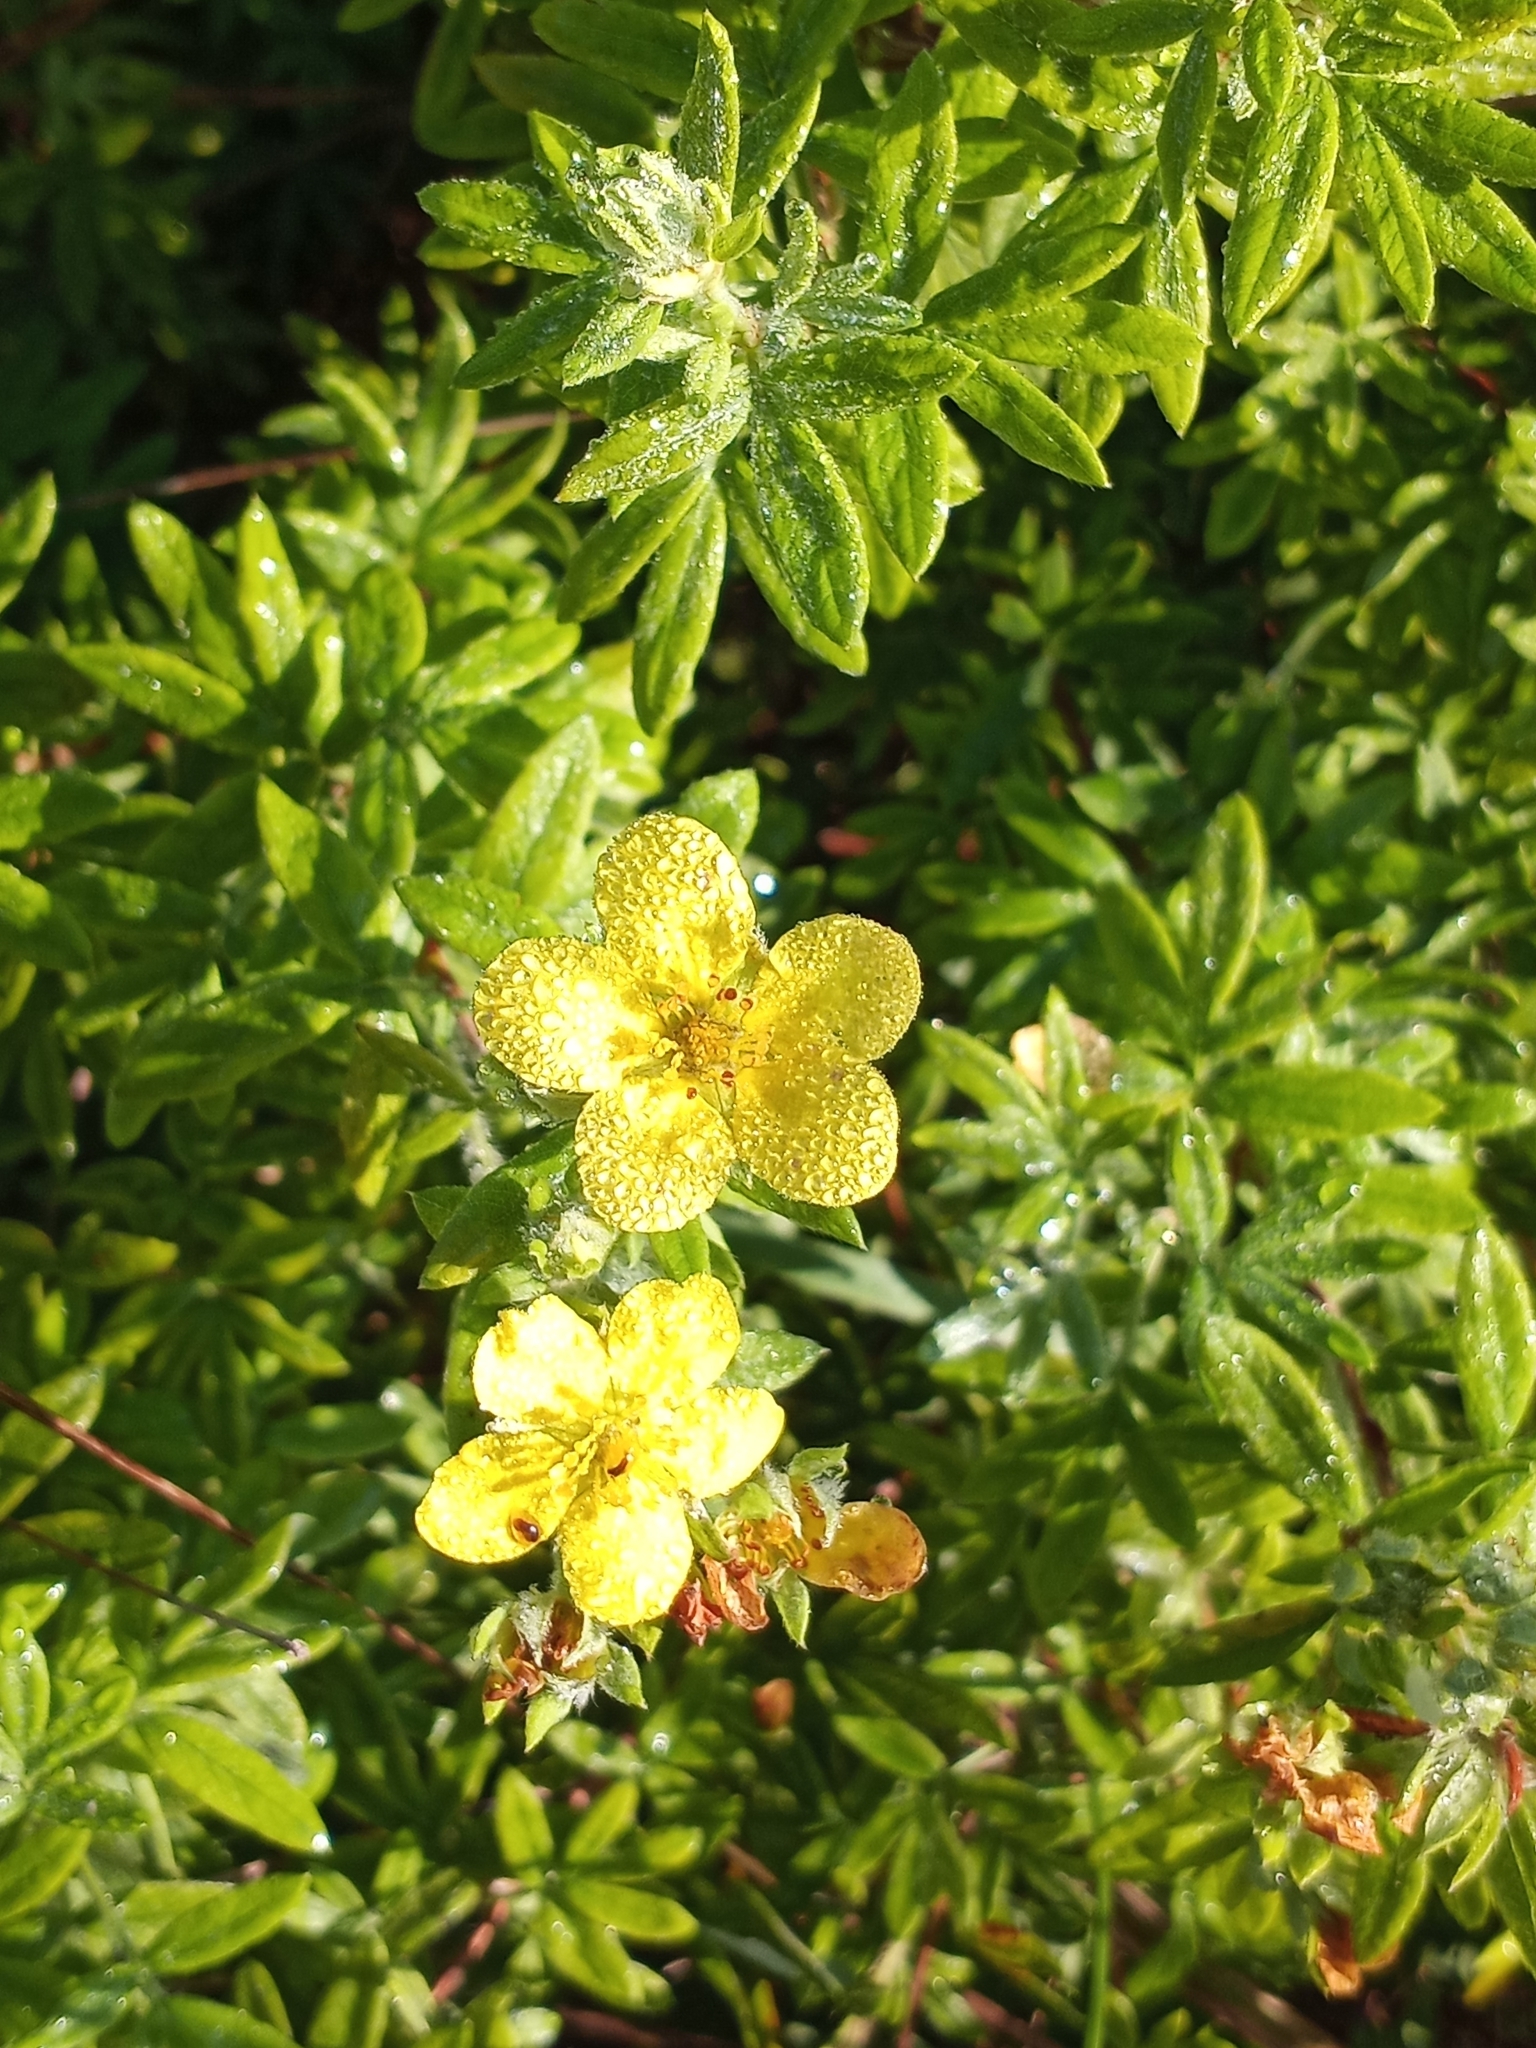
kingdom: Plantae
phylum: Tracheophyta
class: Magnoliopsida
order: Rosales
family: Rosaceae
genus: Dasiphora
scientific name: Dasiphora fruticosa
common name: Shrubby cinquefoil
